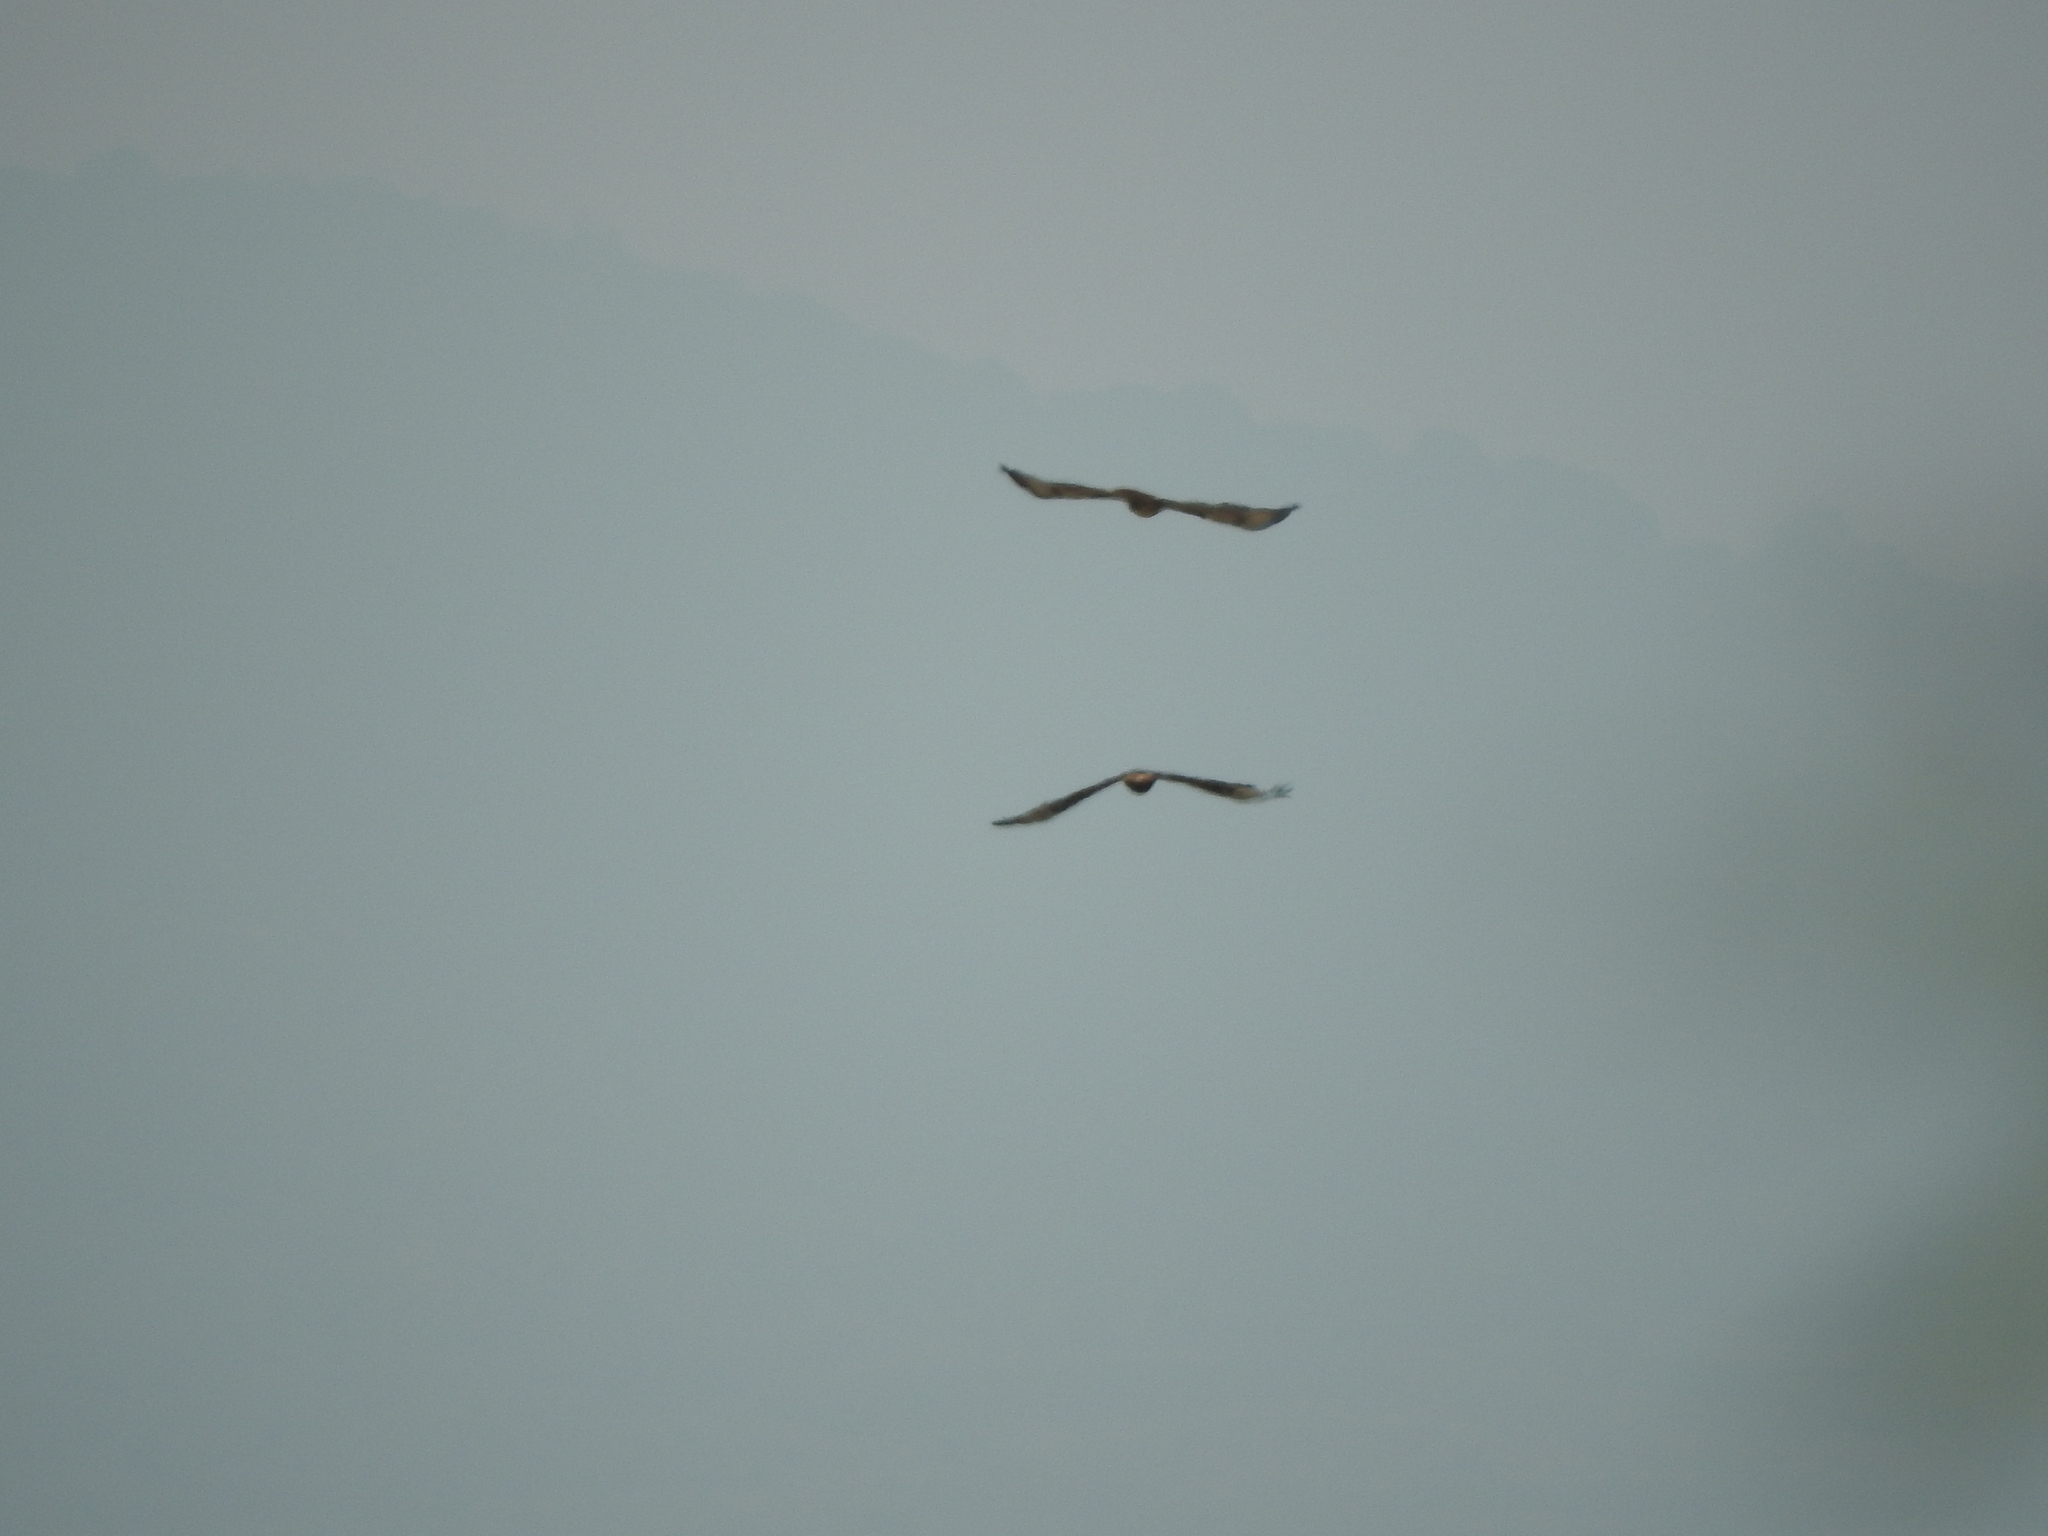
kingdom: Animalia
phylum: Chordata
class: Aves
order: Accipitriformes
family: Accipitridae
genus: Buteo
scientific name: Buteo jamaicensis
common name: Red-tailed hawk
